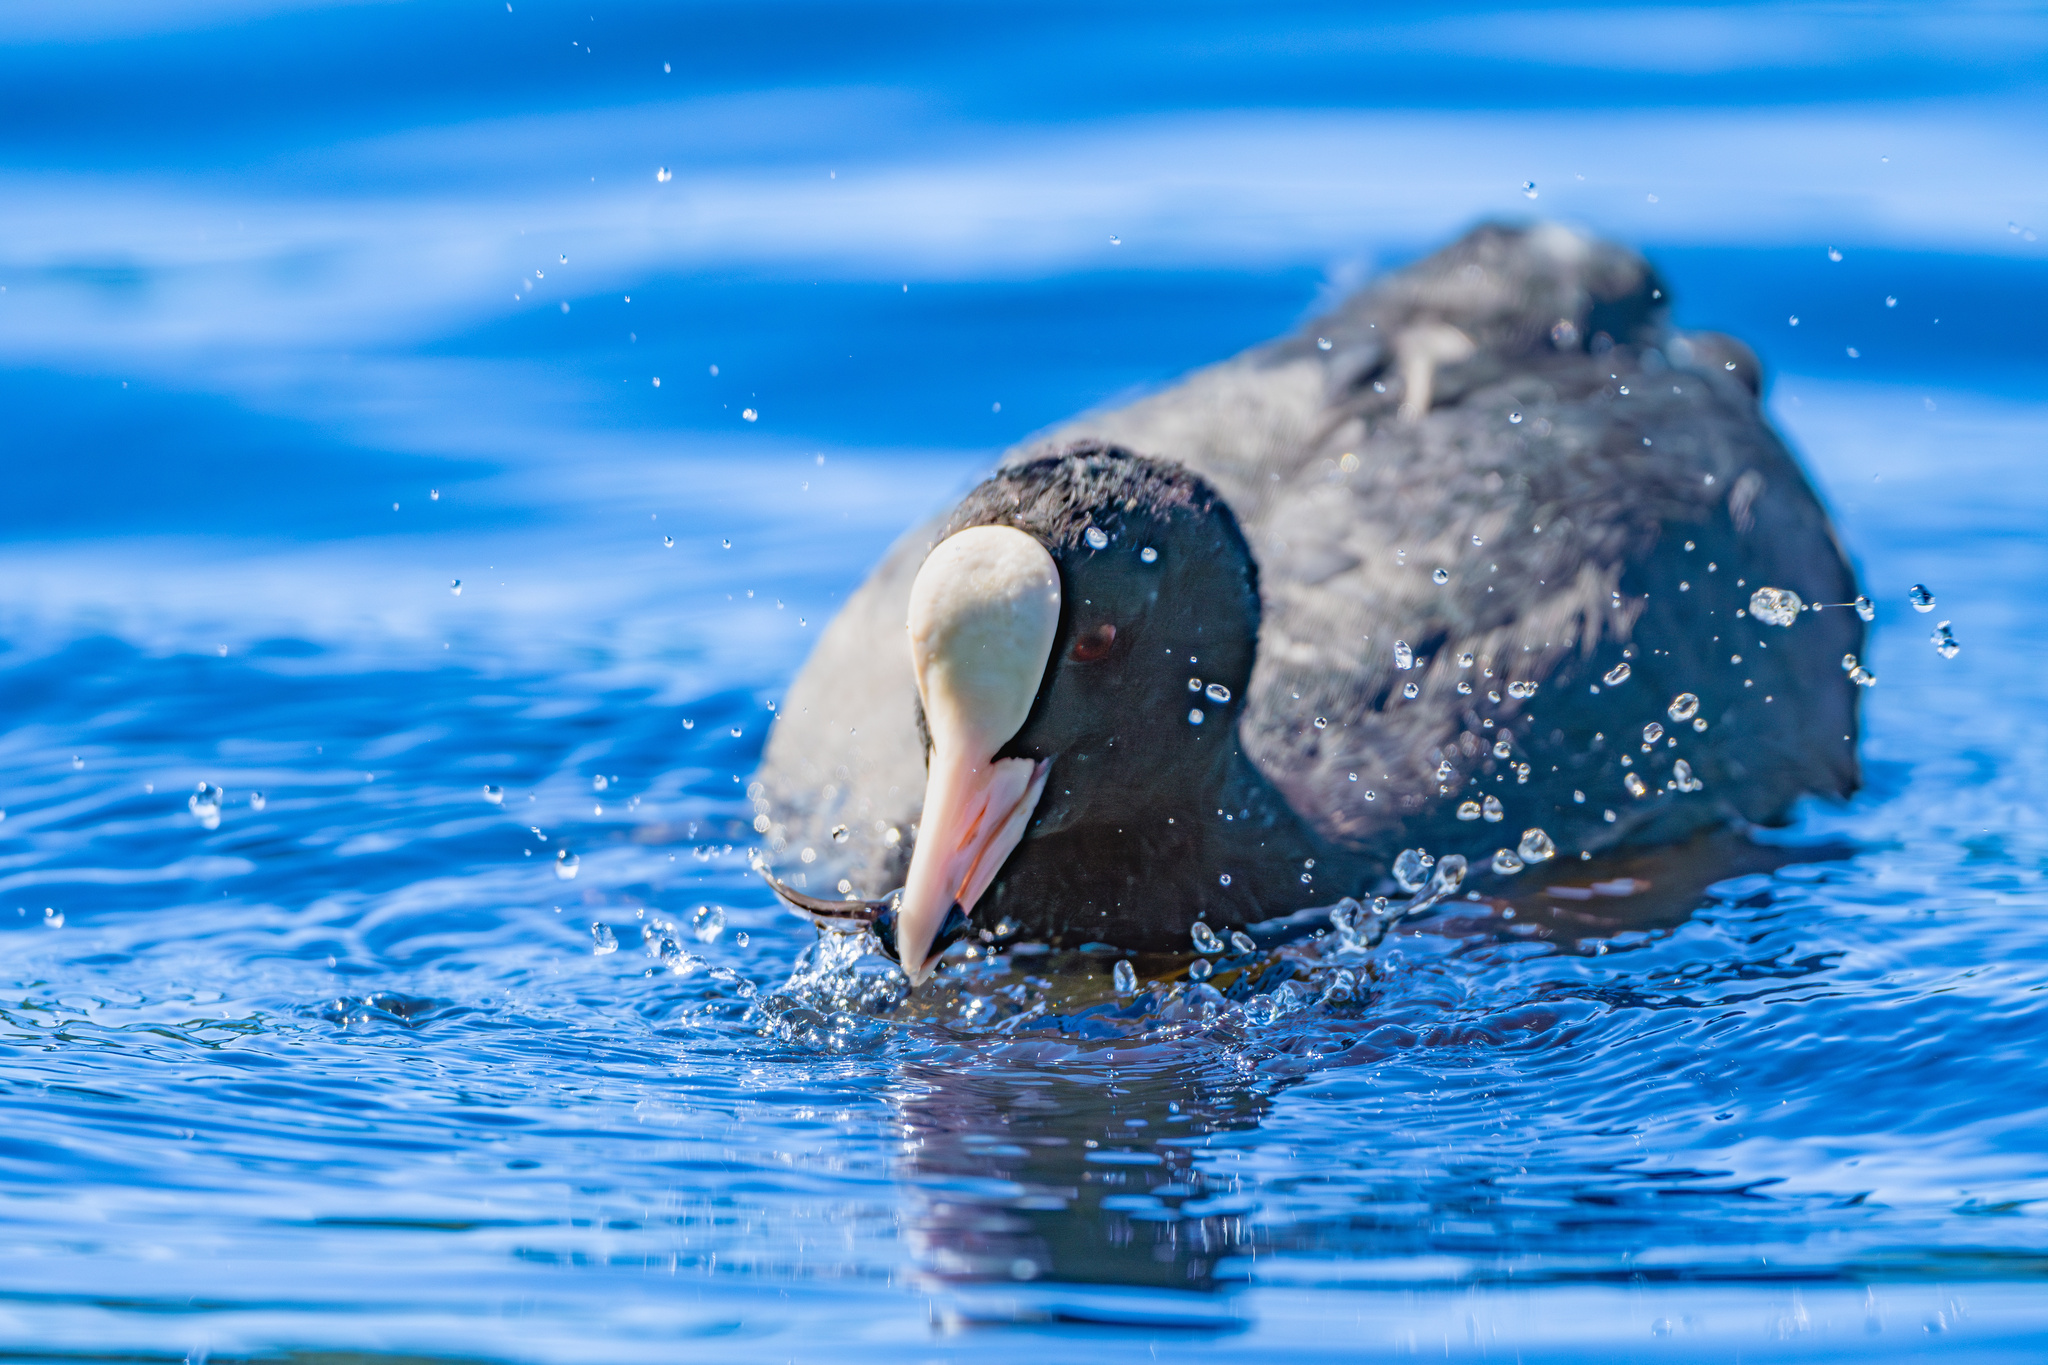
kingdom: Animalia
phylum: Chordata
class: Aves
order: Gruiformes
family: Rallidae
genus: Fulica
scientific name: Fulica atra
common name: Eurasian coot
